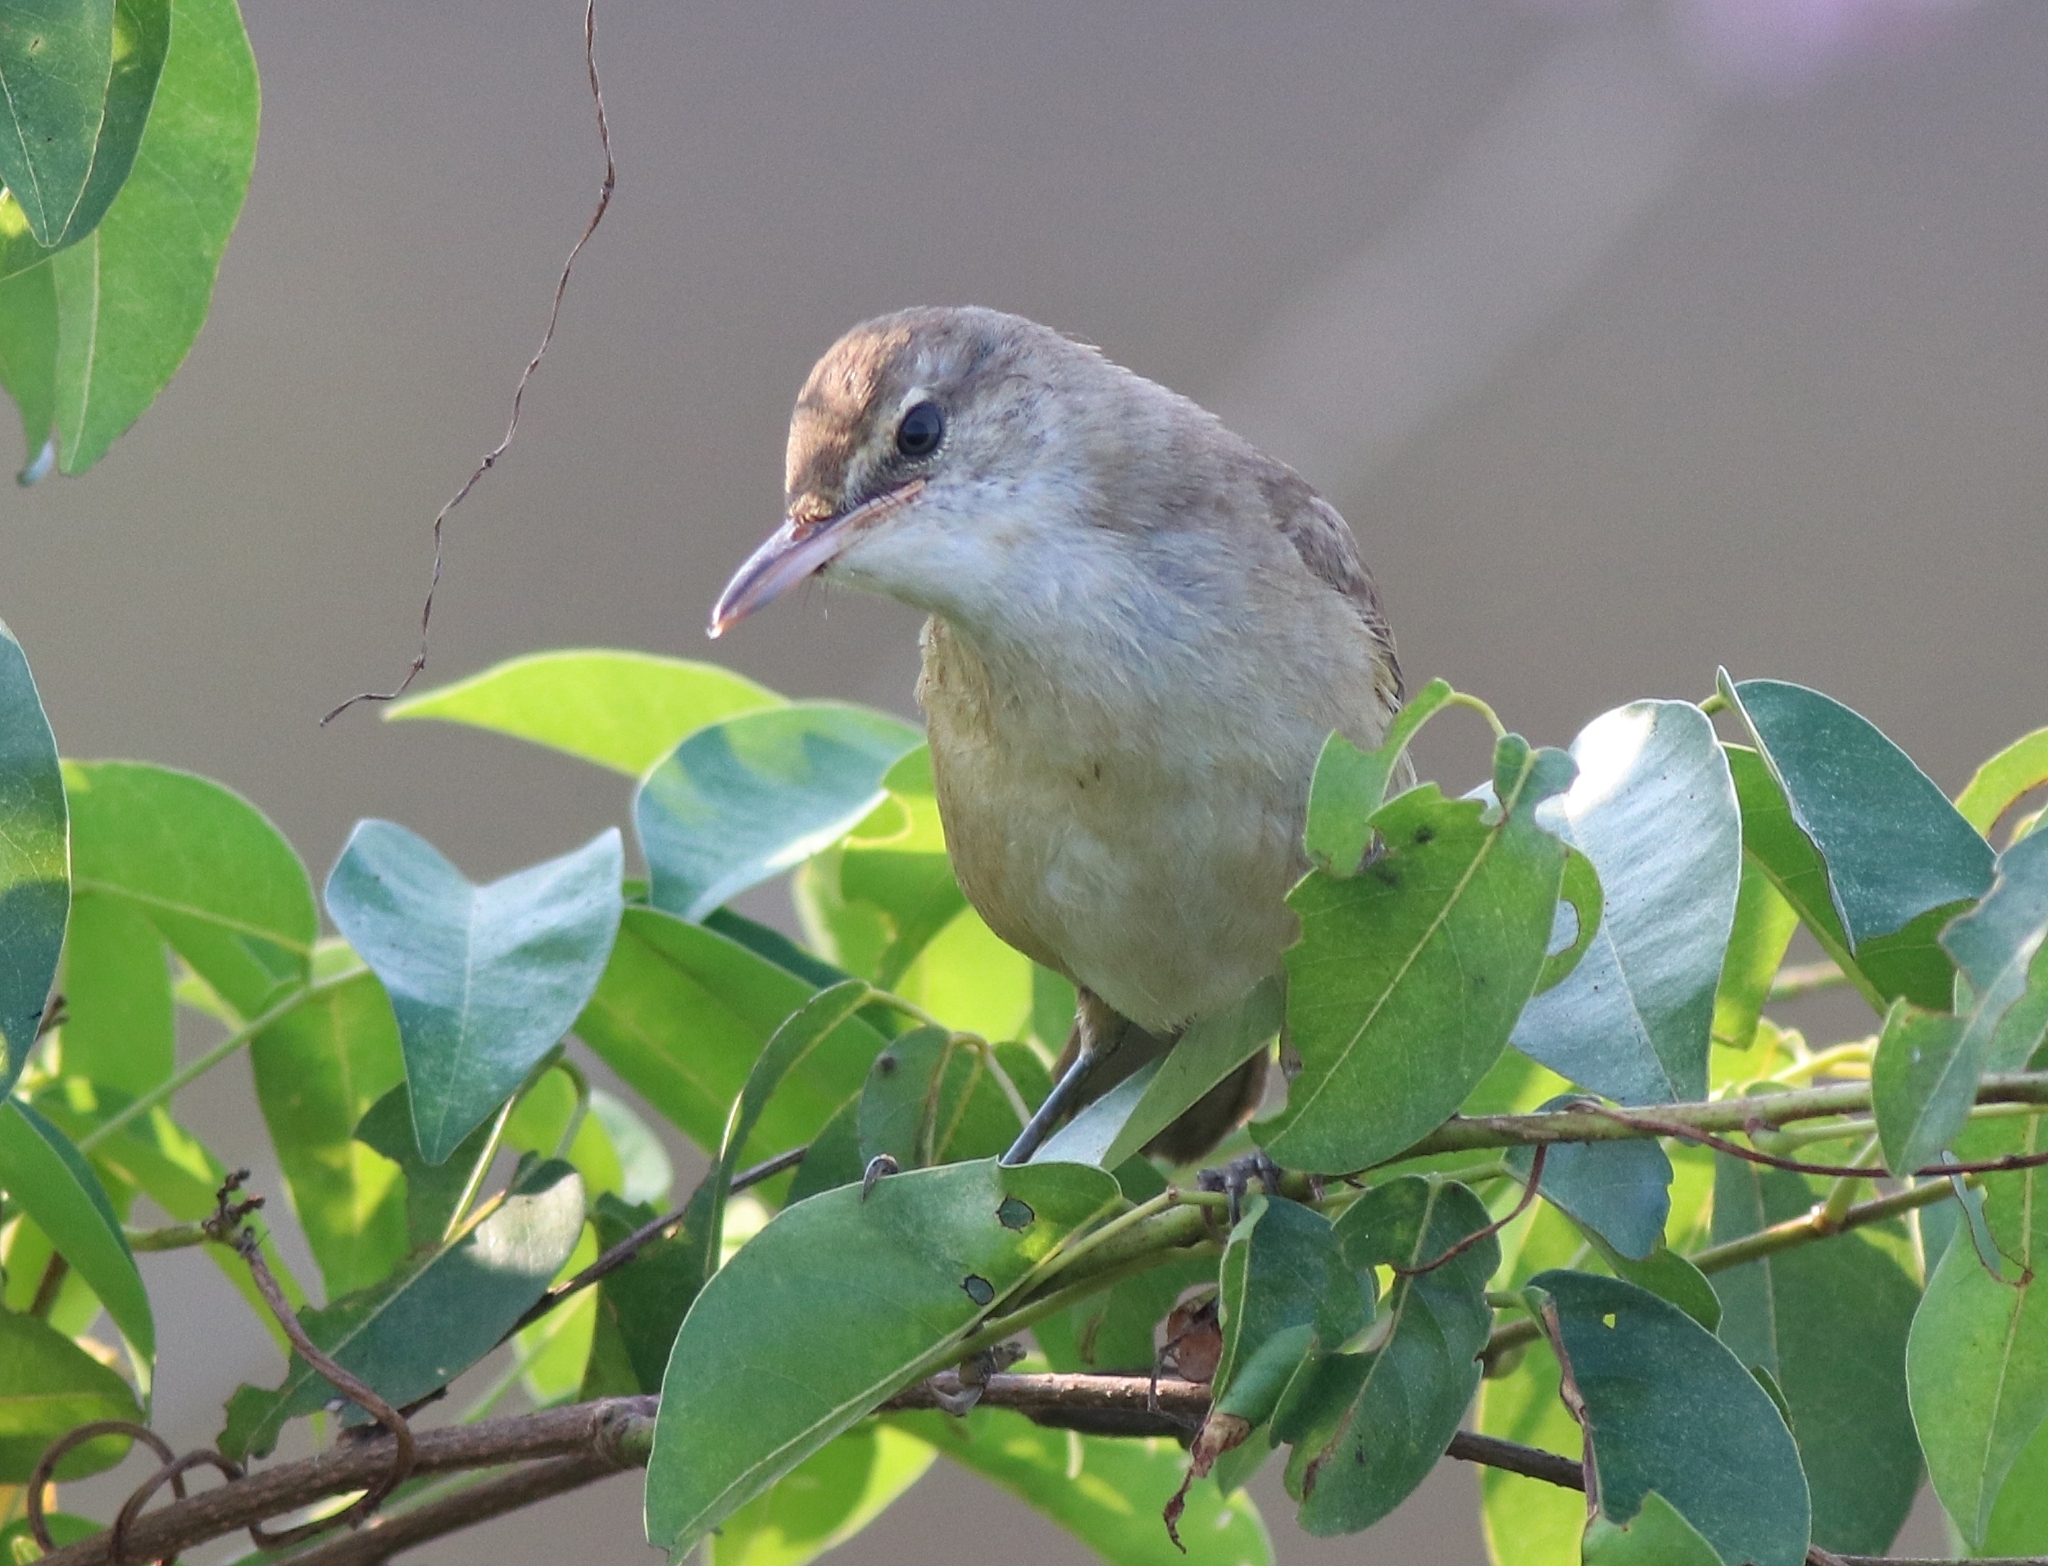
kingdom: Animalia
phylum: Chordata
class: Aves
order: Passeriformes
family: Acrocephalidae
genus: Acrocephalus
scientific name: Acrocephalus stentoreus
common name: Clamorous reed warbler
